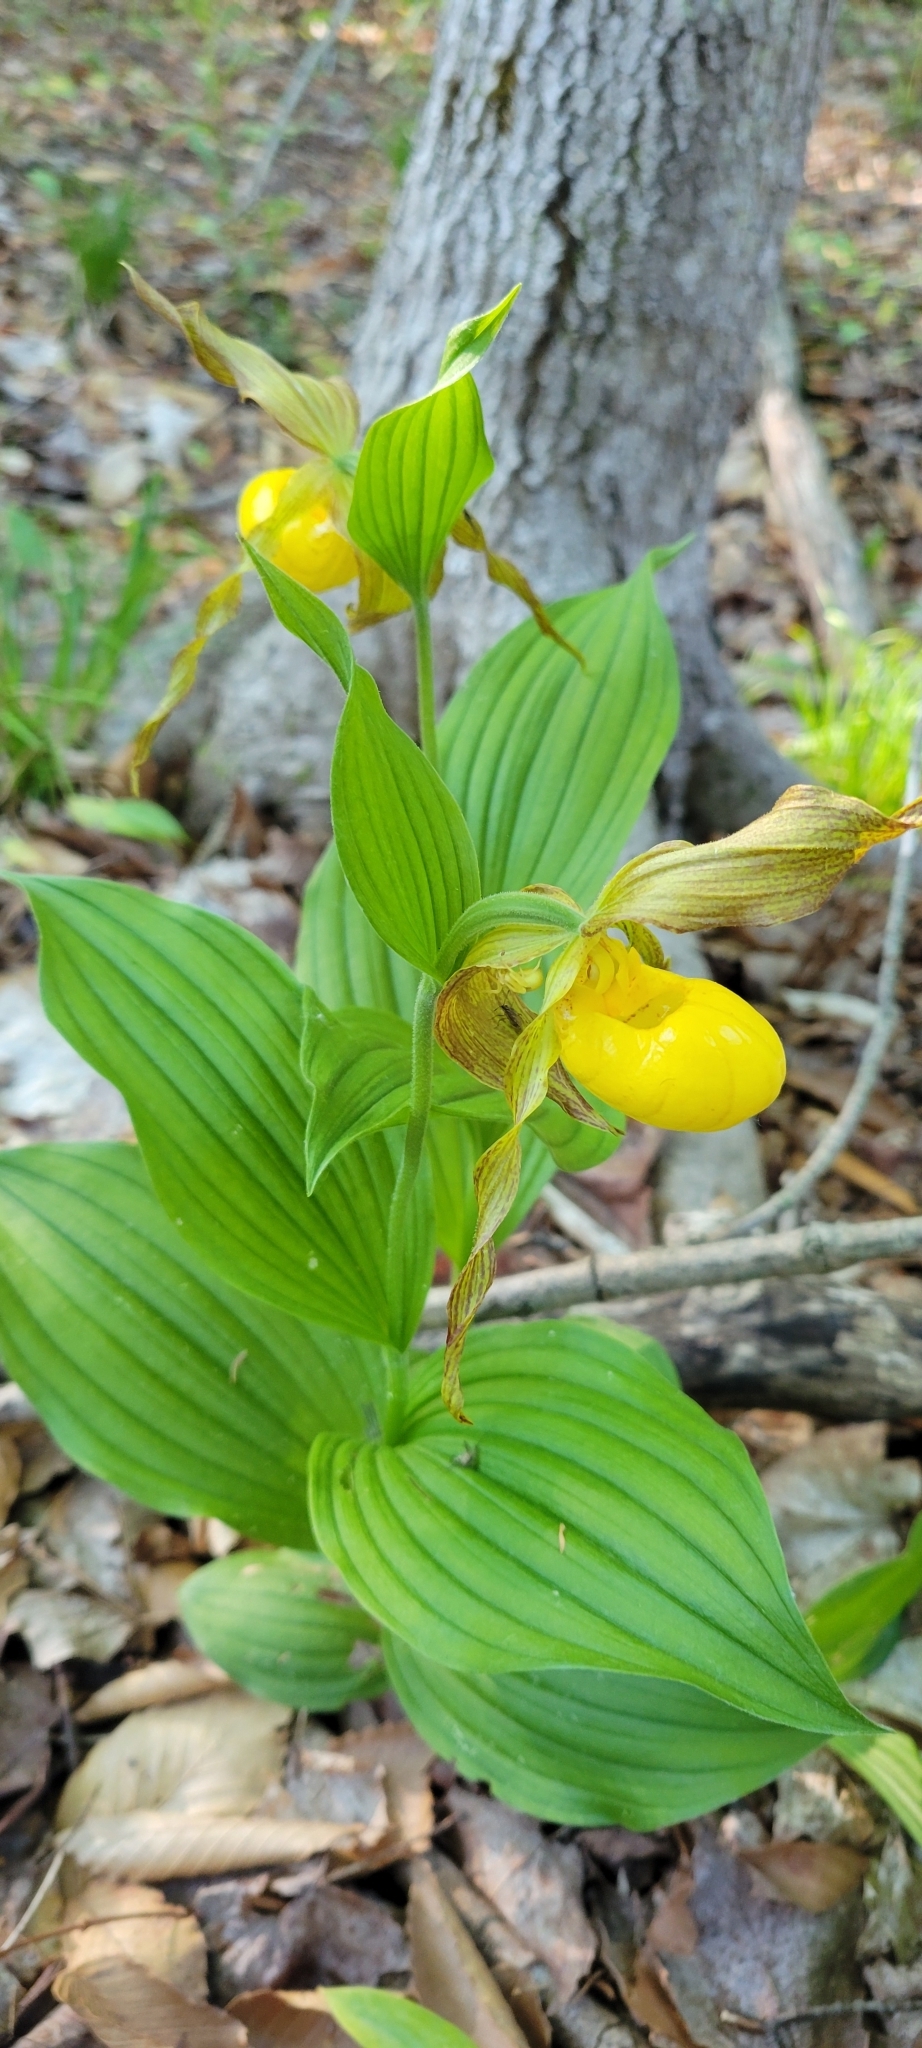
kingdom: Plantae
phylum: Tracheophyta
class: Liliopsida
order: Asparagales
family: Orchidaceae
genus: Cypripedium
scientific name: Cypripedium parviflorum
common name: American yellow lady's-slipper
